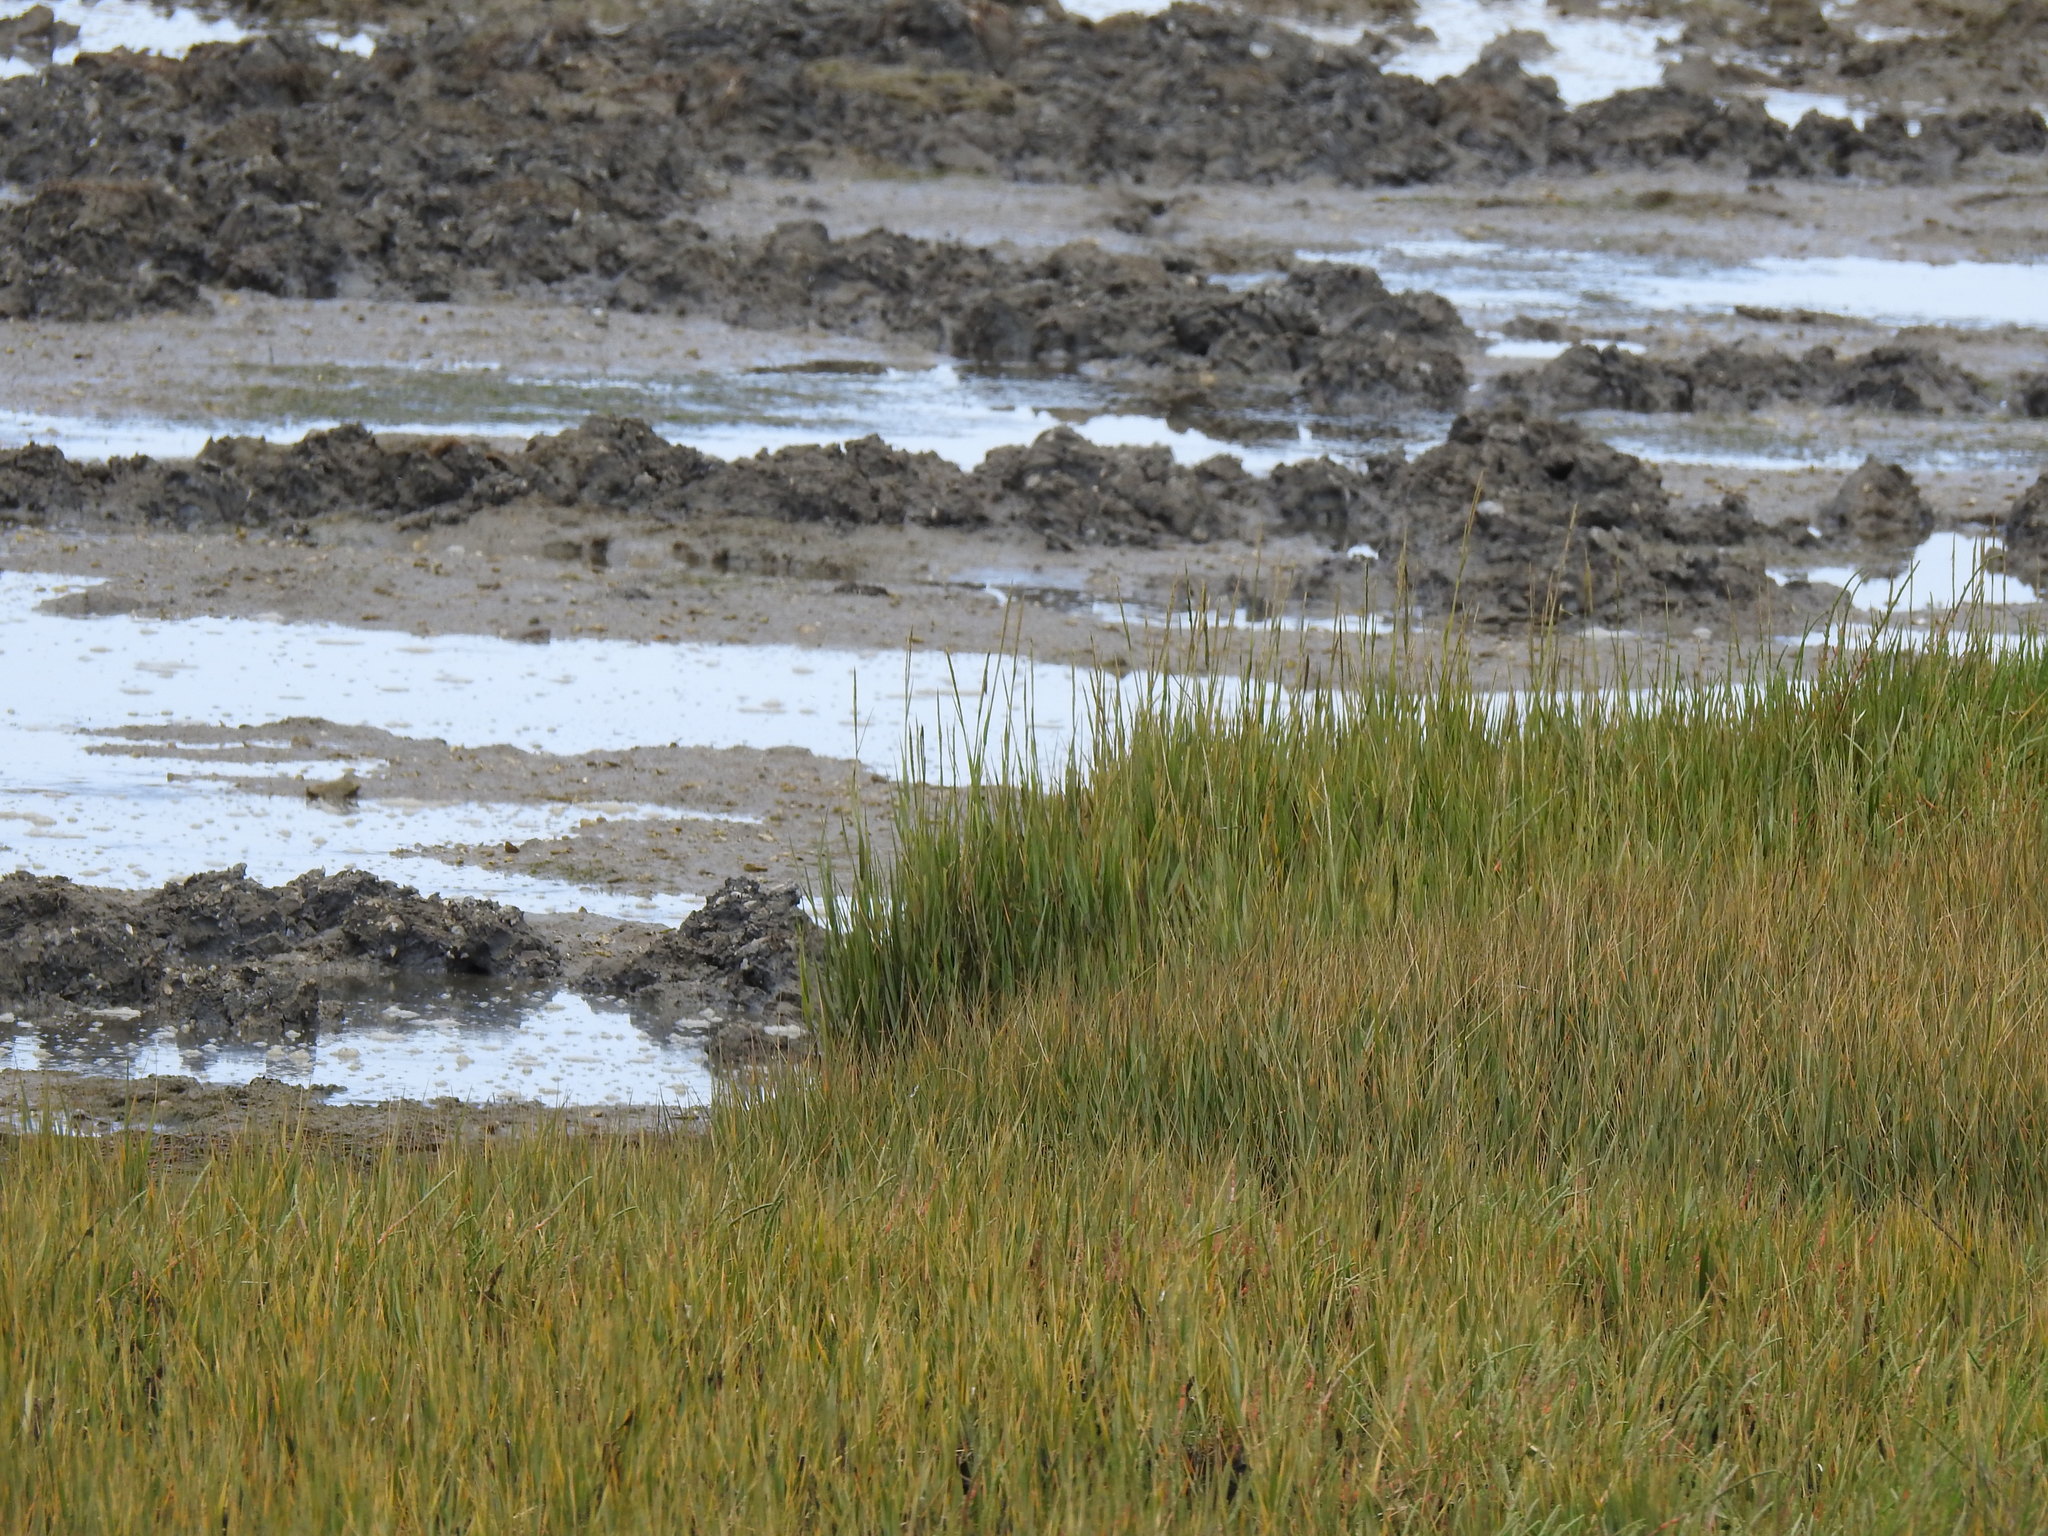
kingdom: Plantae
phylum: Tracheophyta
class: Liliopsida
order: Poales
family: Poaceae
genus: Sporobolus
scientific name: Sporobolus maritimus
